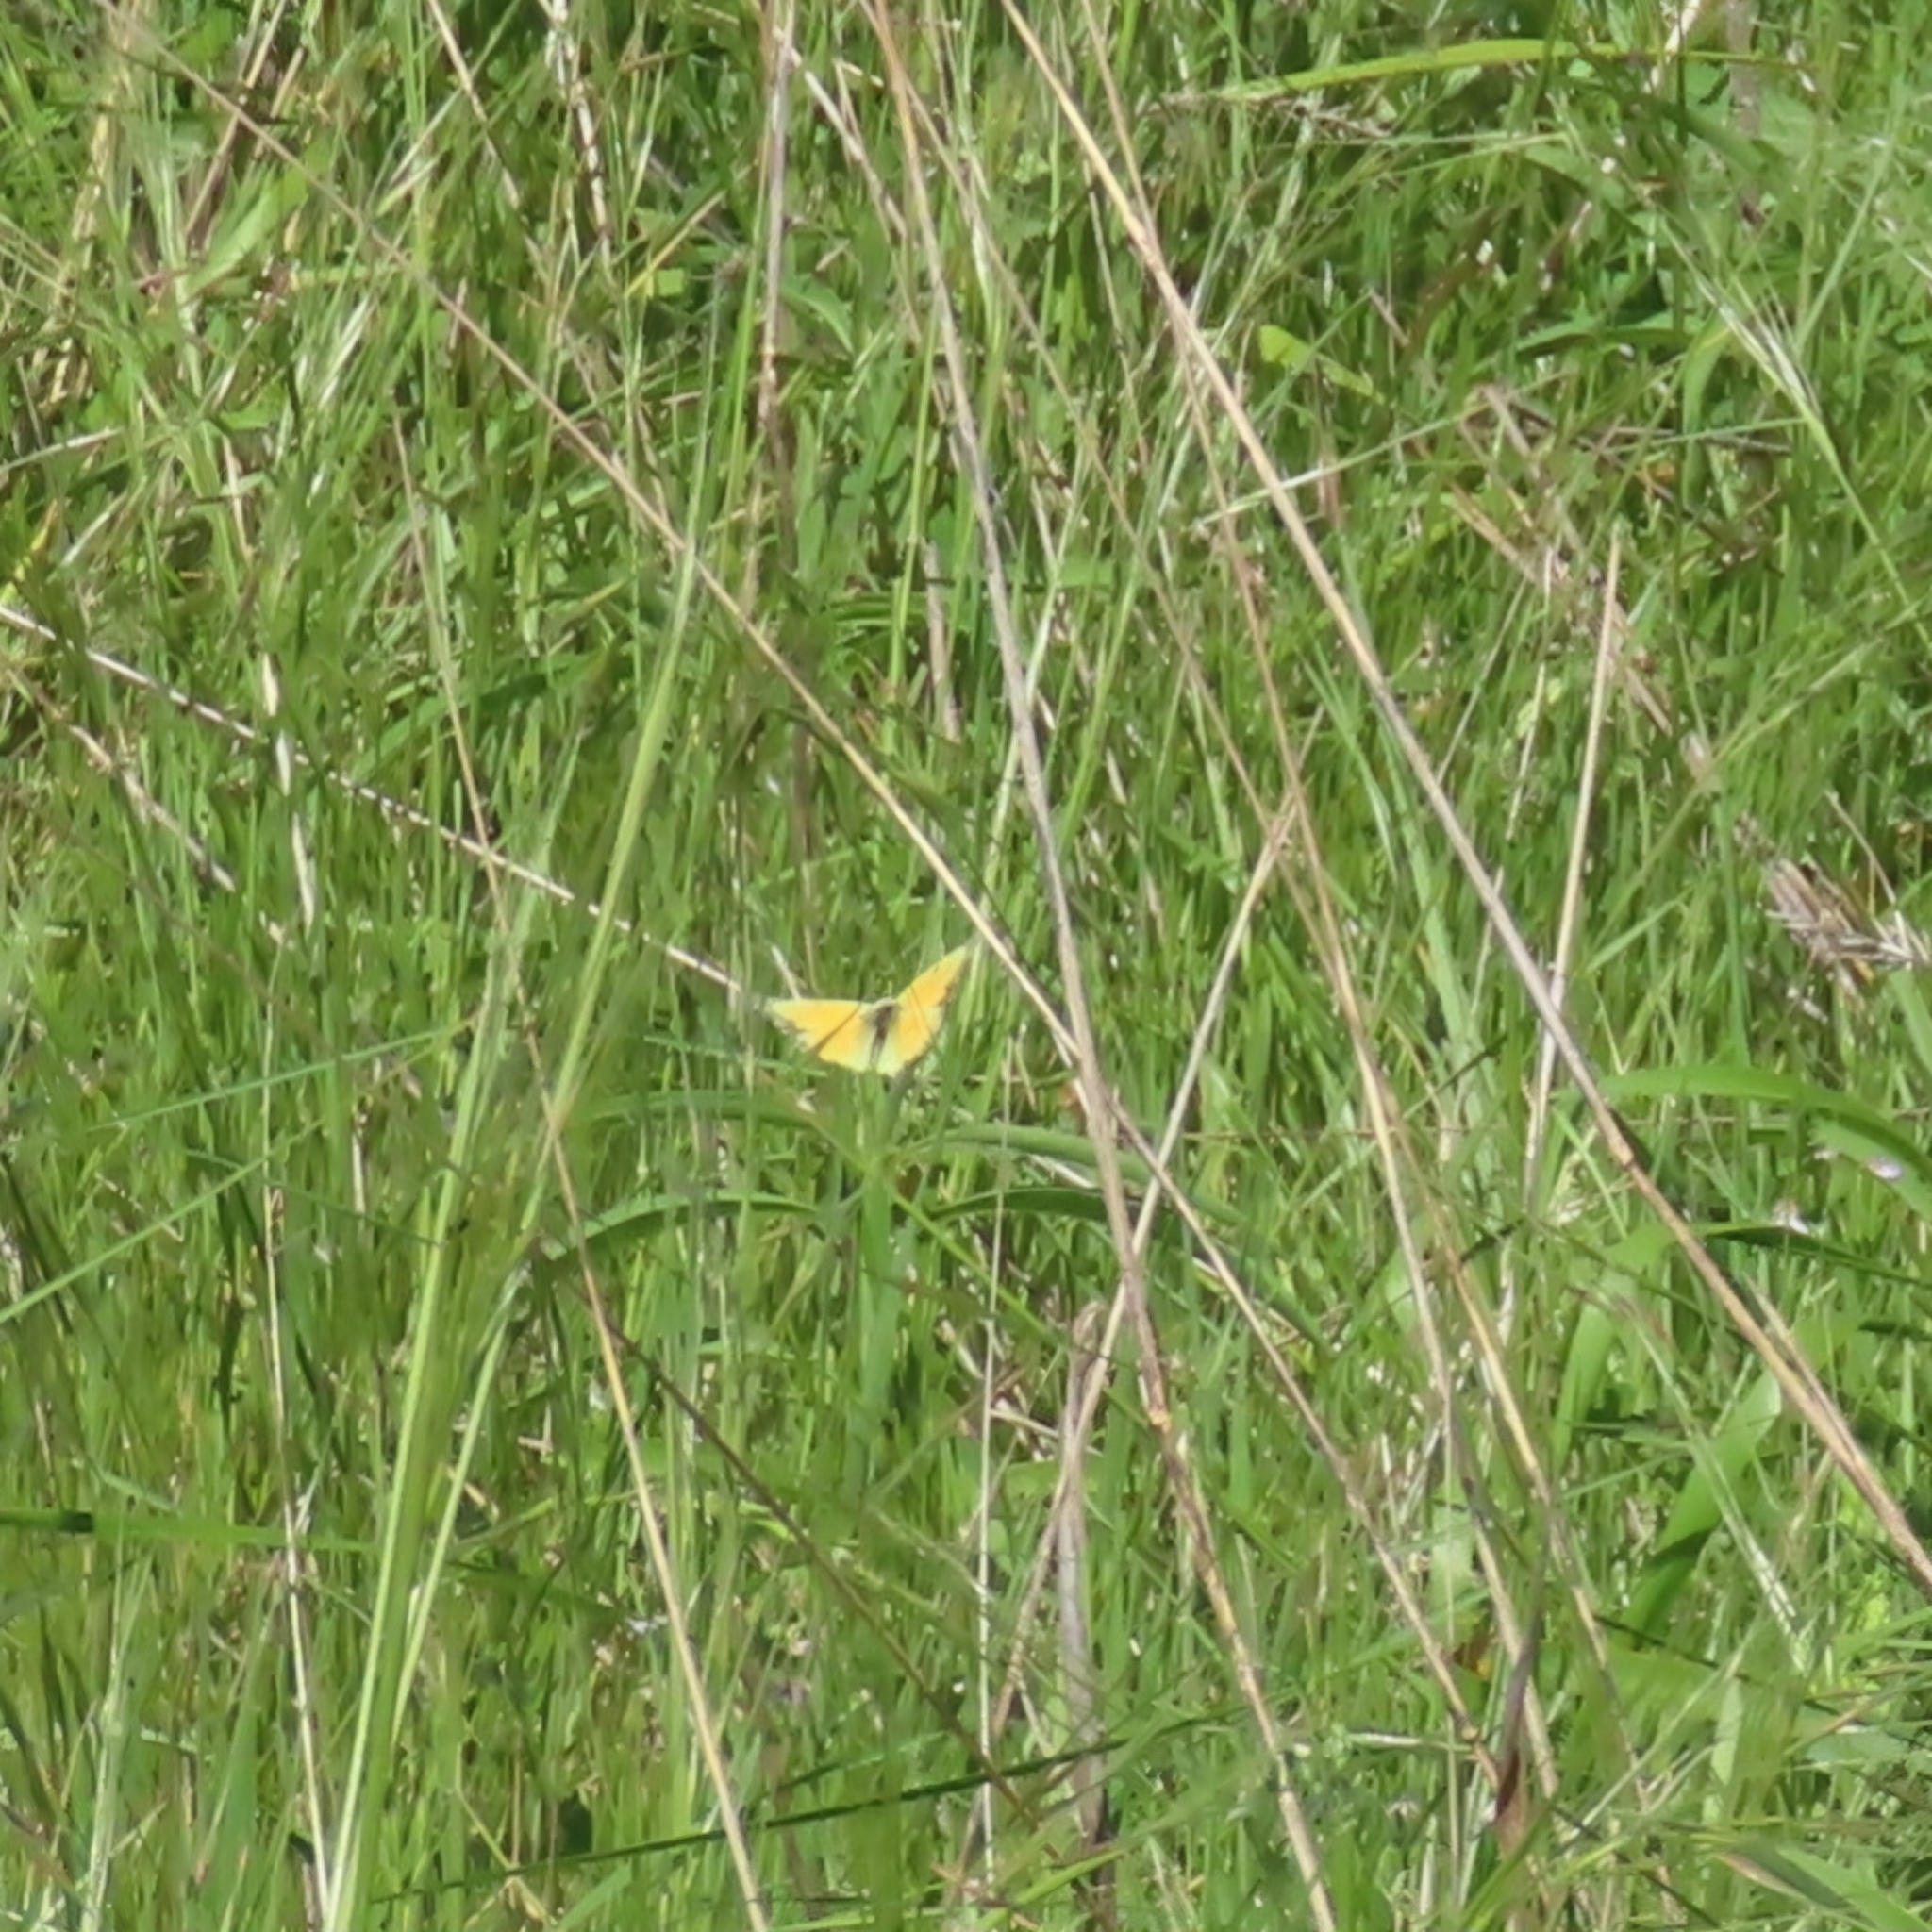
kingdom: Animalia
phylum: Arthropoda
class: Insecta
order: Lepidoptera
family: Pieridae
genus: Colias
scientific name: Colias eurytheme
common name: Alfalfa butterfly
